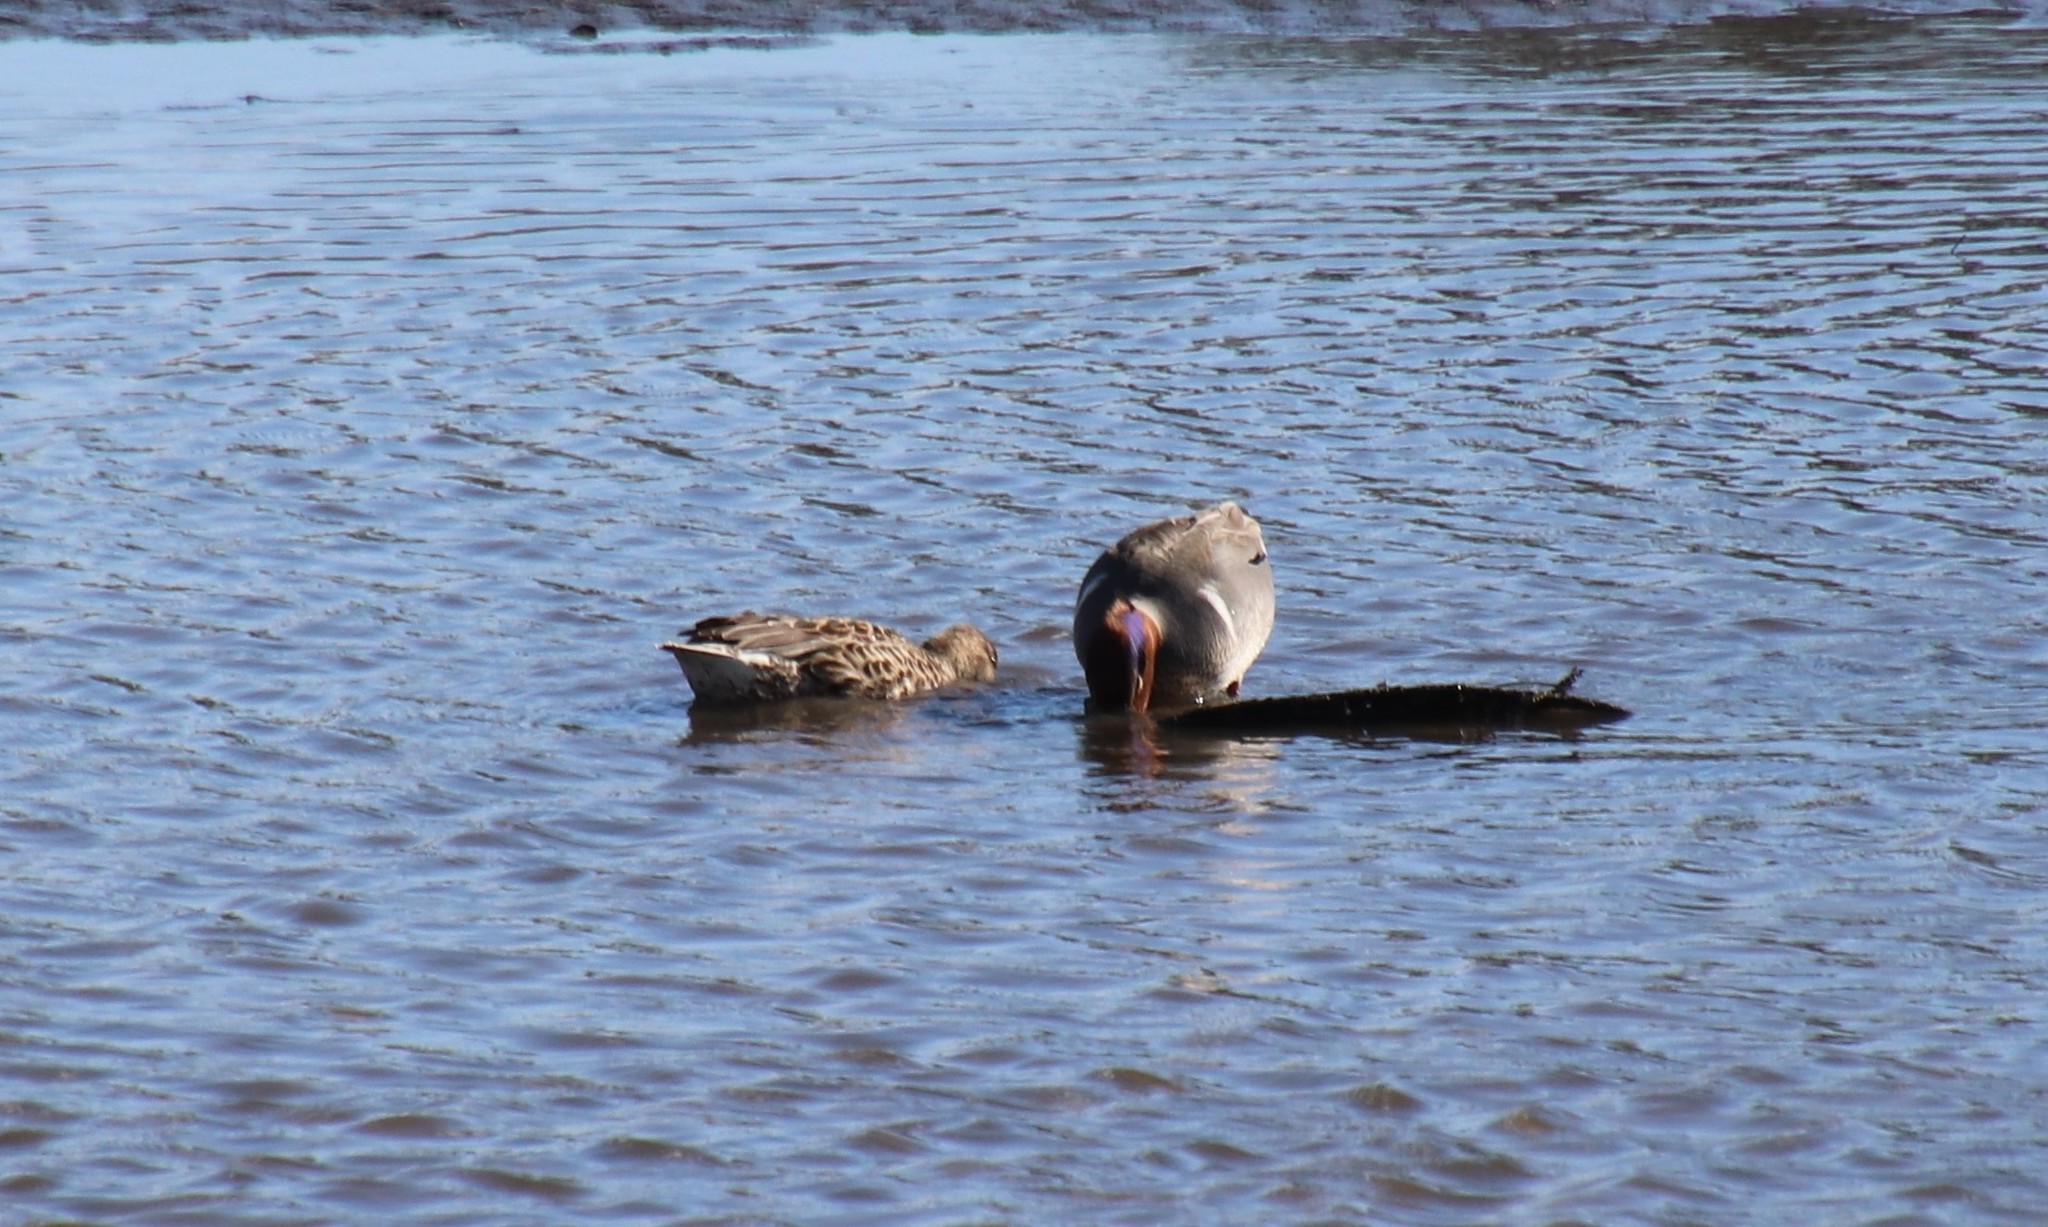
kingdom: Animalia
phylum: Chordata
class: Aves
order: Anseriformes
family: Anatidae
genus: Anas
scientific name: Anas crecca
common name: Eurasian teal
